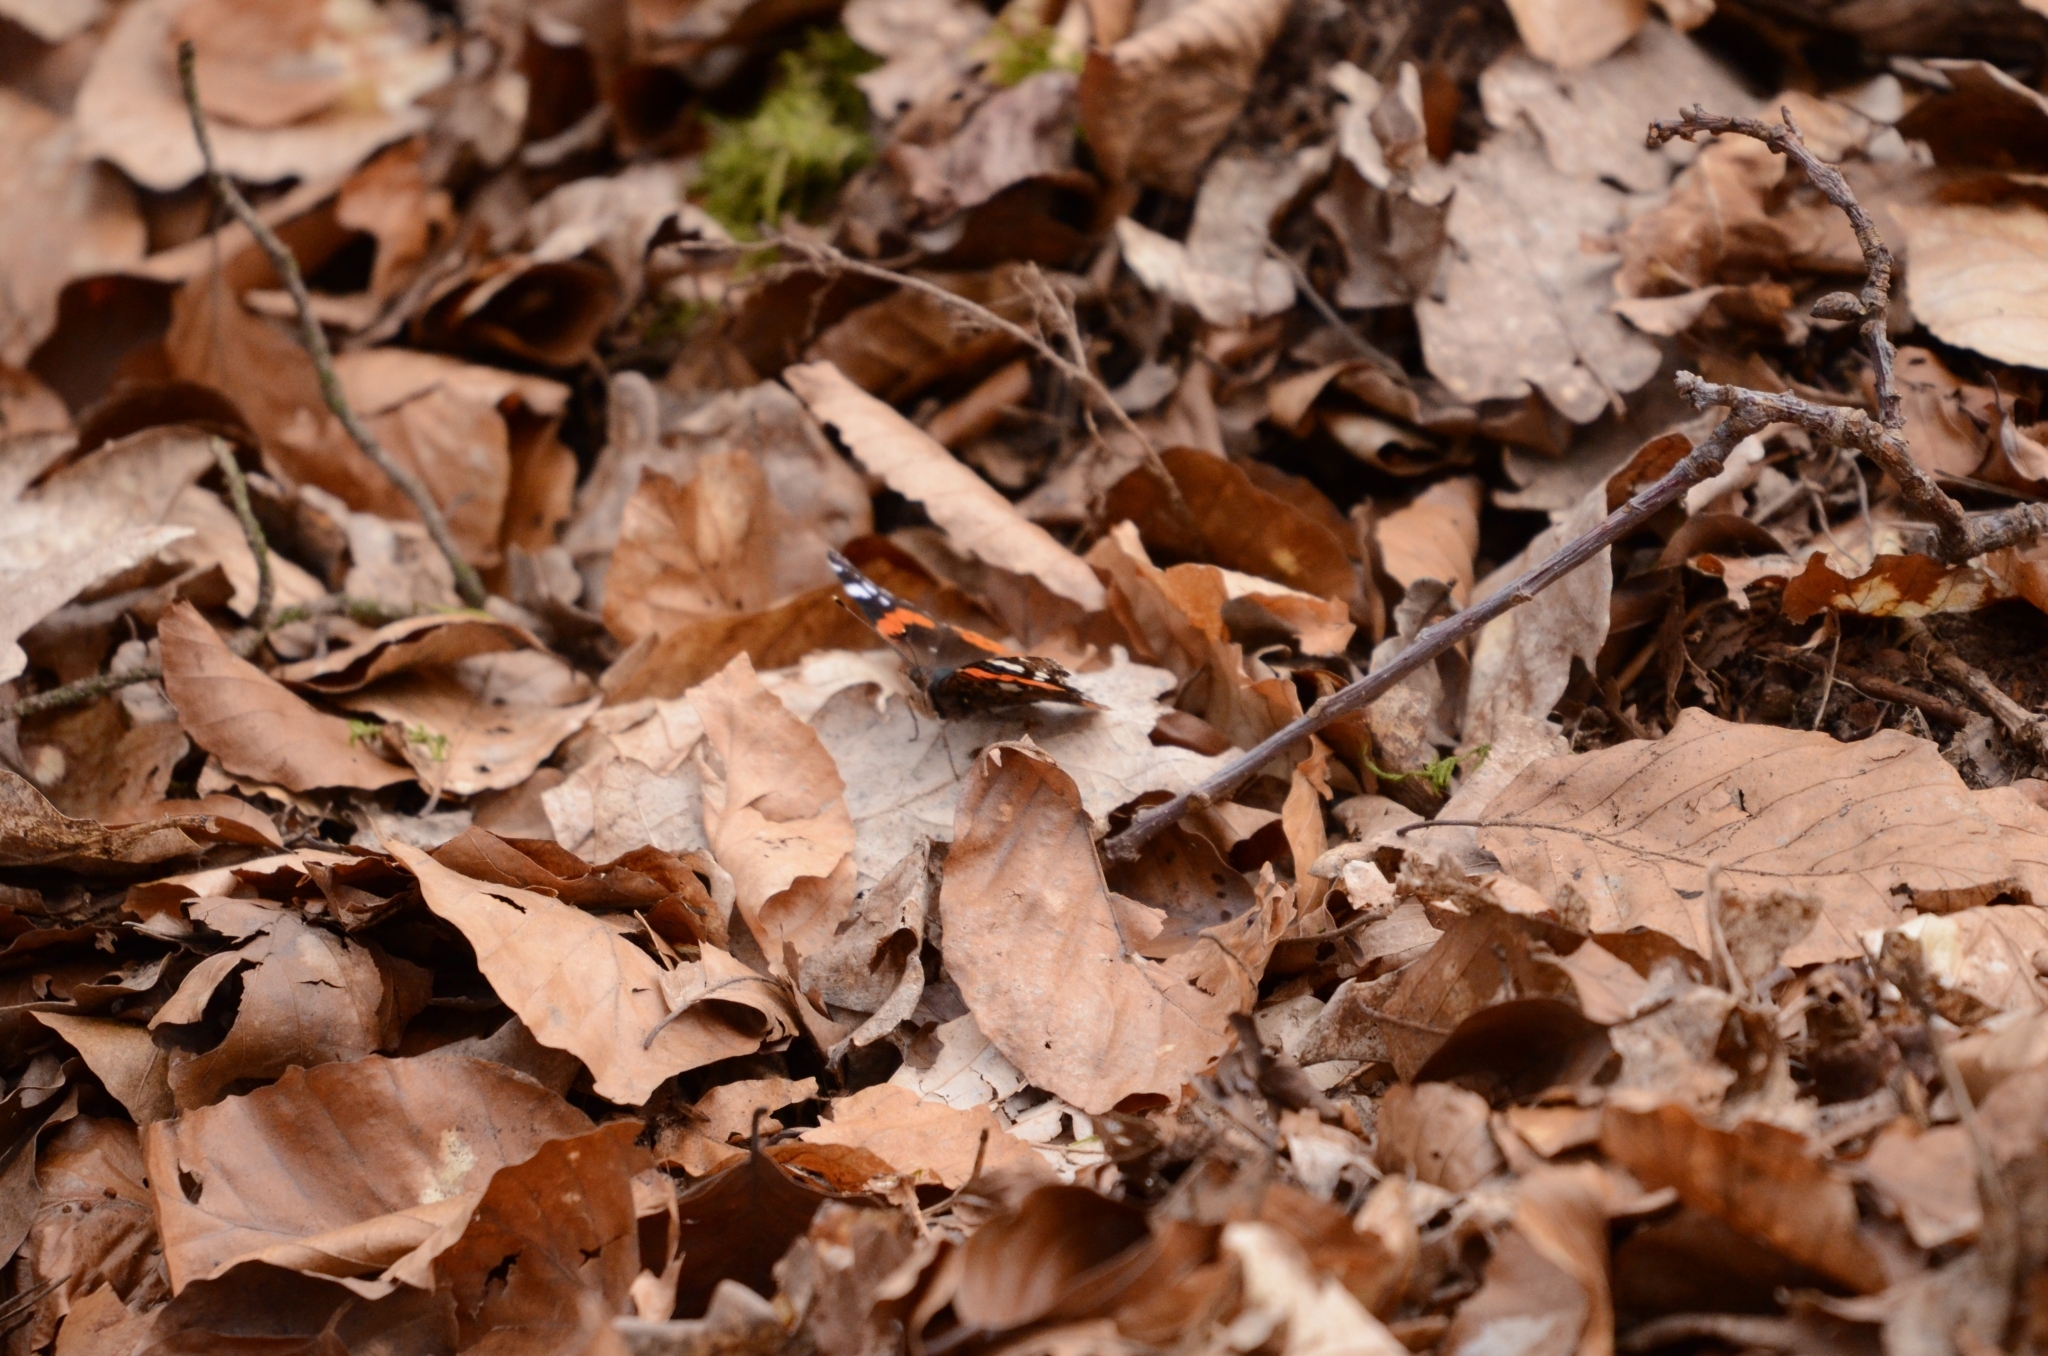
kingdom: Animalia
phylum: Arthropoda
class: Insecta
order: Lepidoptera
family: Nymphalidae
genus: Vanessa
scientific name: Vanessa atalanta
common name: Red admiral
